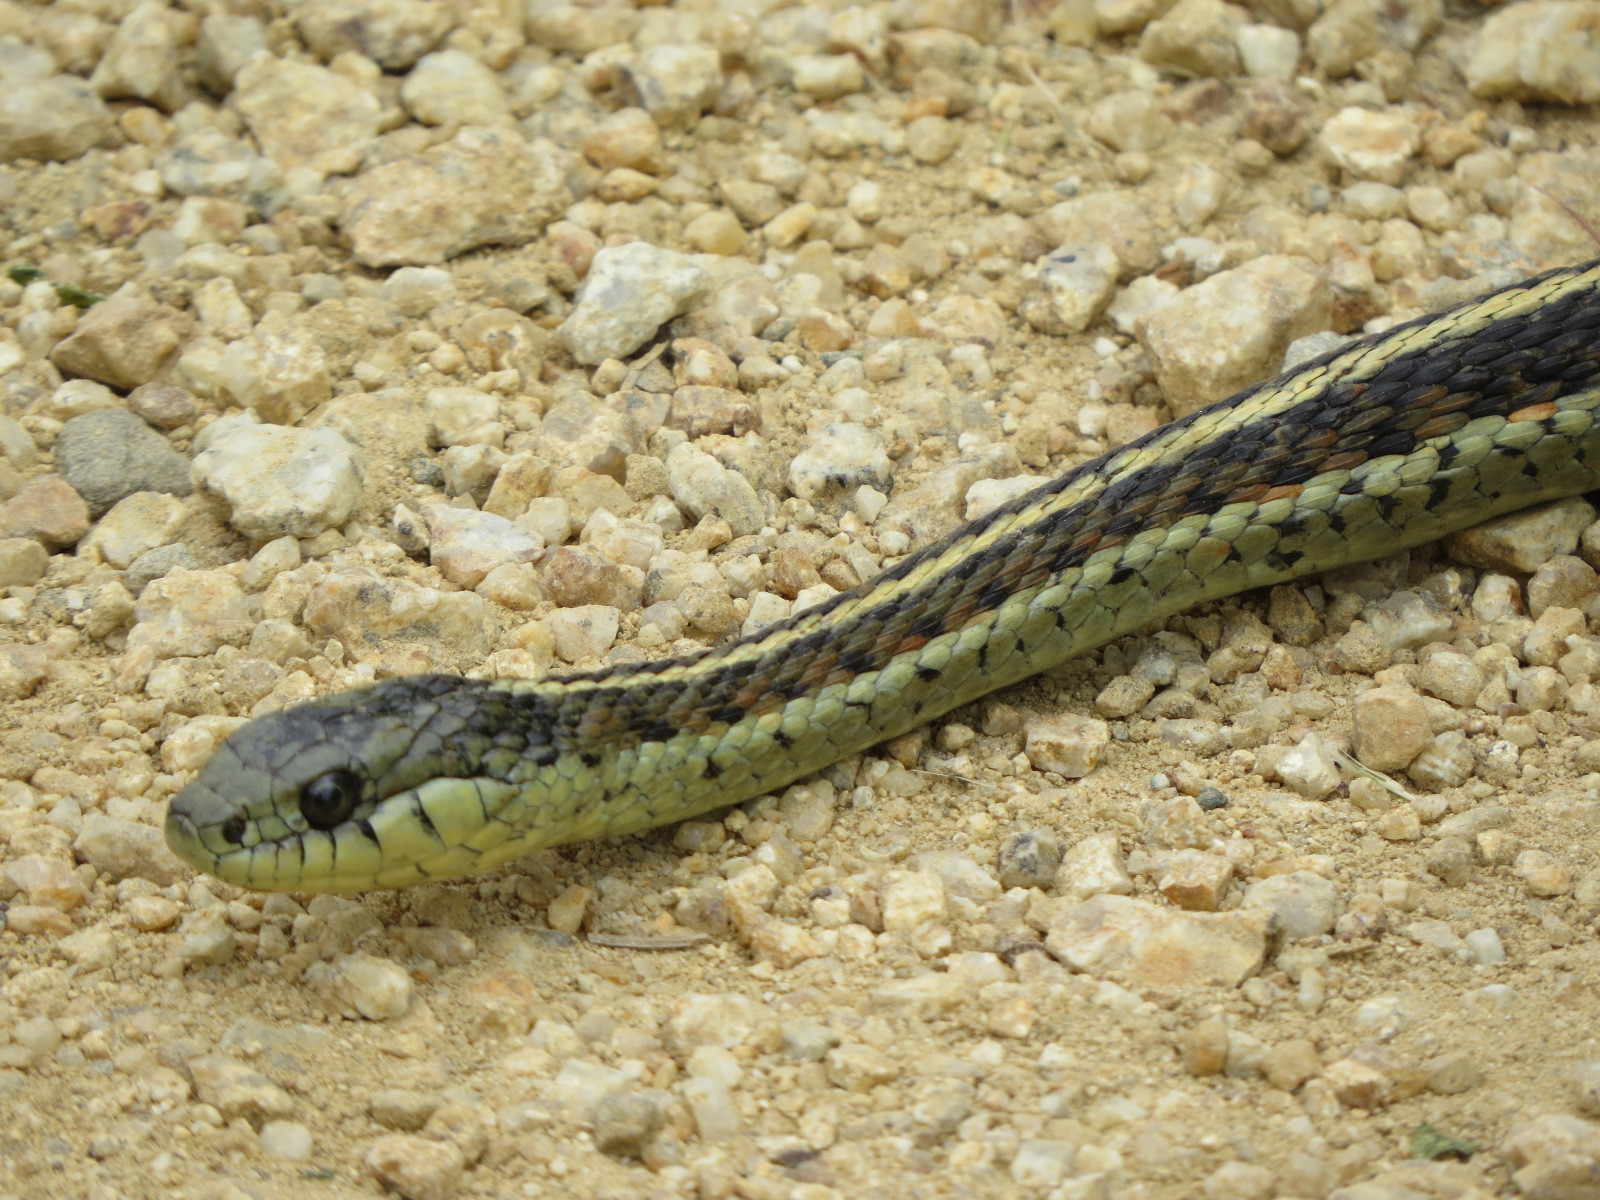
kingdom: Animalia
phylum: Chordata
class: Squamata
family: Colubridae
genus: Thamnophis
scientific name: Thamnophis elegans
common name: Western terrestrial garter snake
